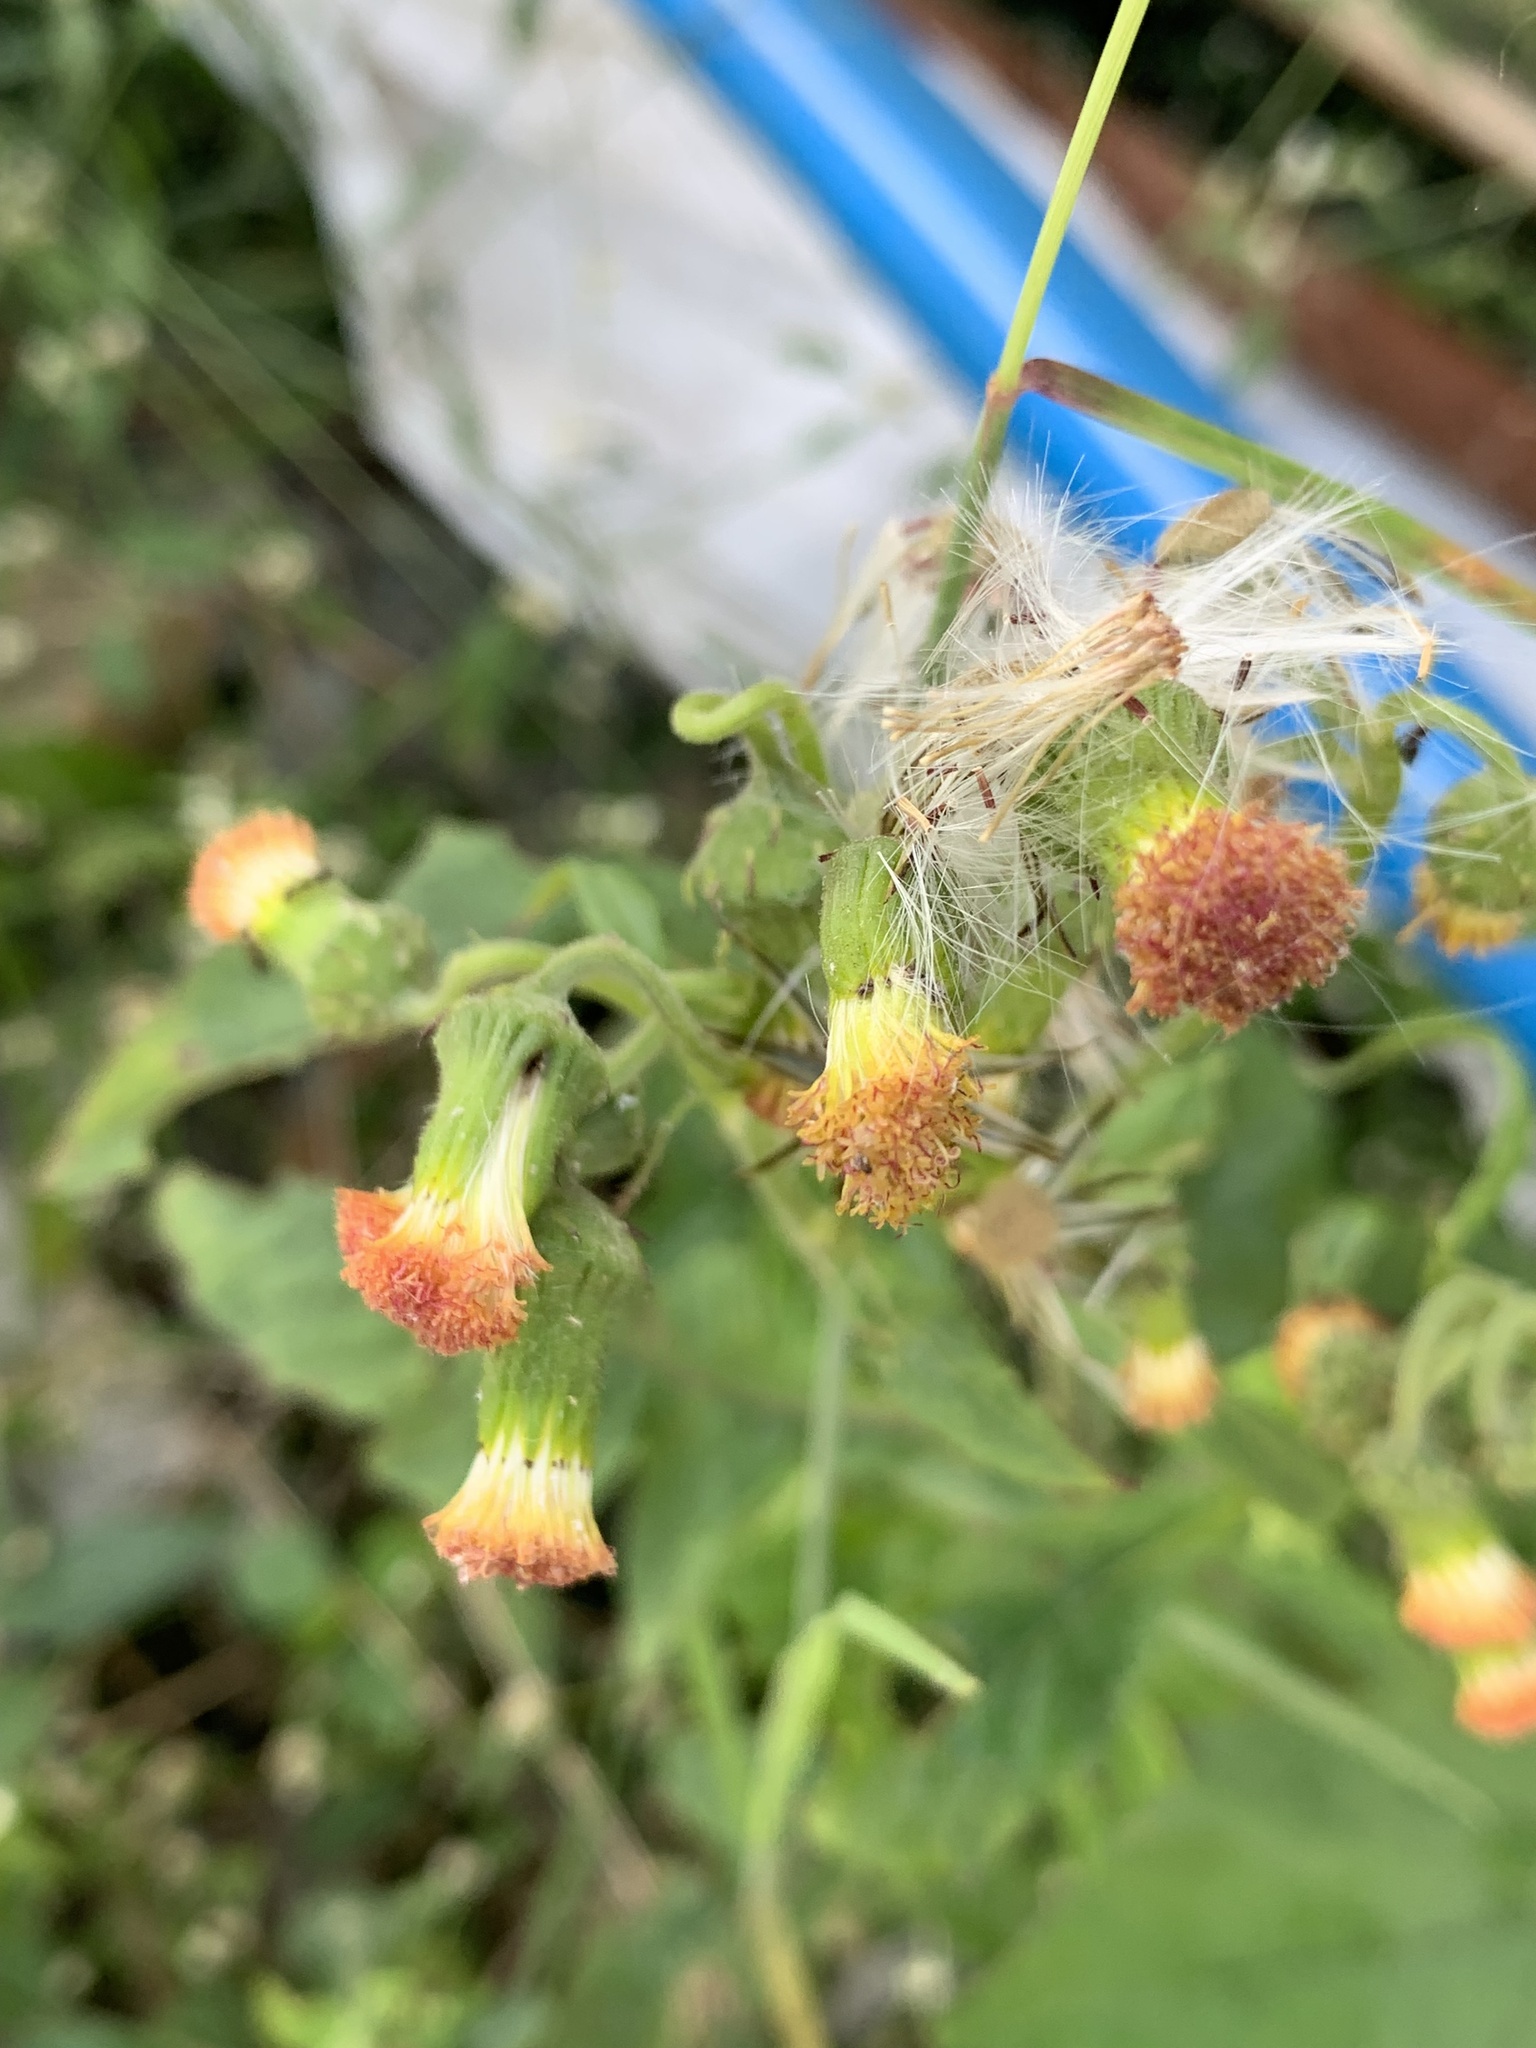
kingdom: Plantae
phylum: Tracheophyta
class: Magnoliopsida
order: Asterales
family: Asteraceae
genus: Crassocephalum
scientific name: Crassocephalum crepidioides
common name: Redflower ragleaf
